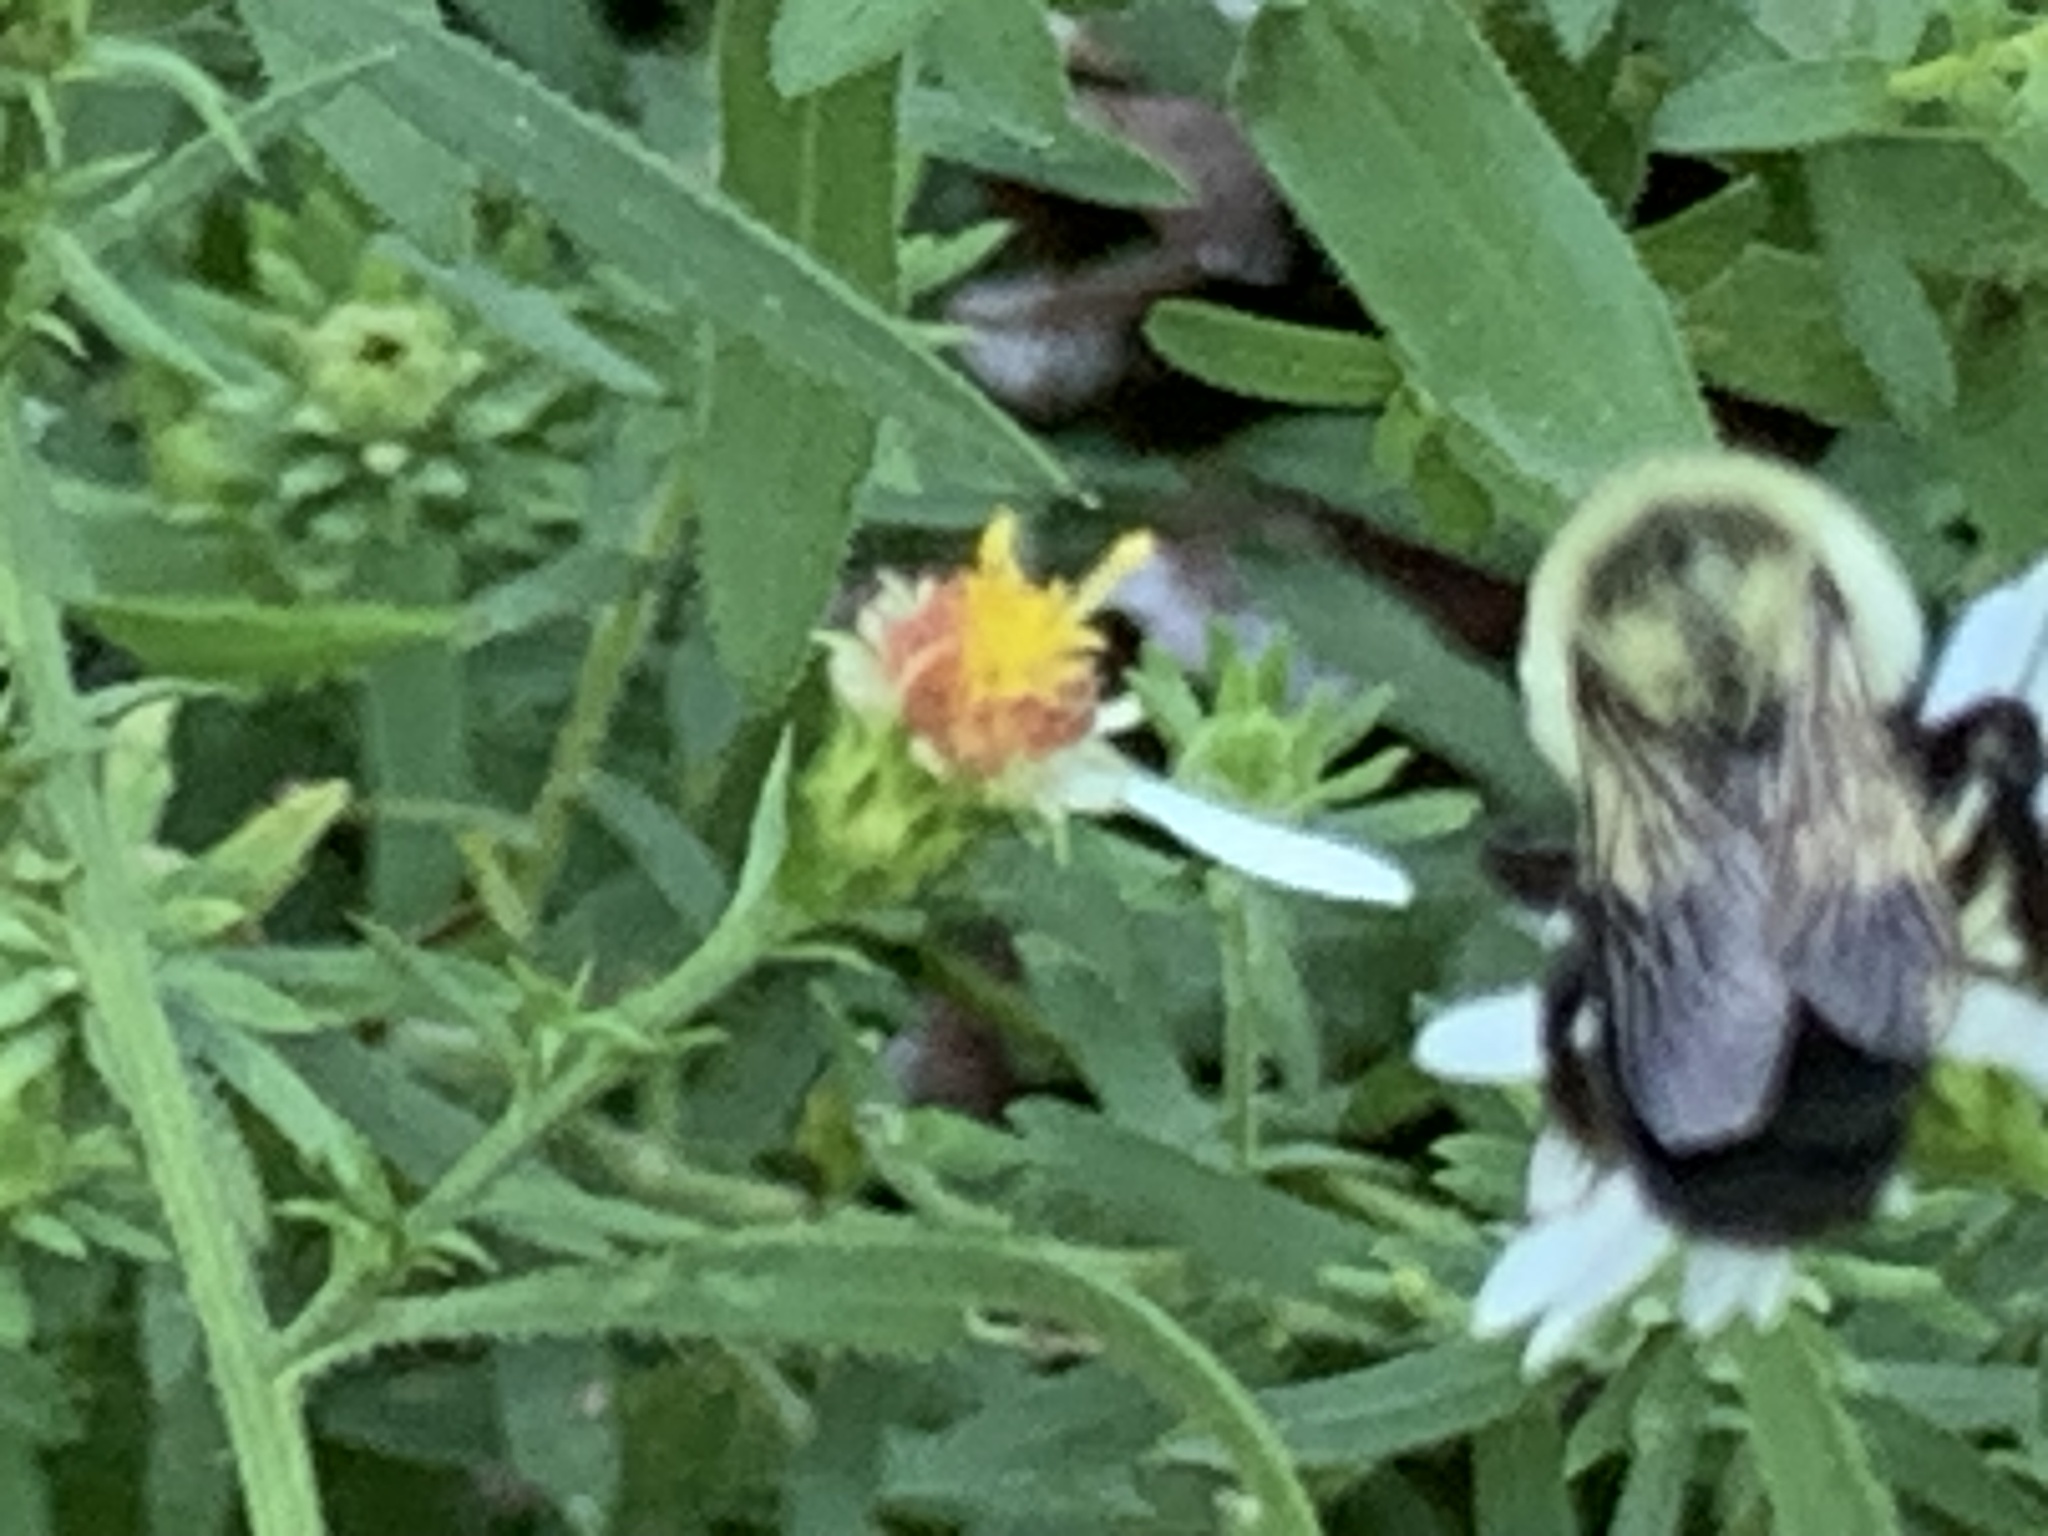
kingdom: Animalia
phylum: Arthropoda
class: Insecta
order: Hymenoptera
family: Apidae
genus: Bombus
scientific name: Bombus impatiens
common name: Common eastern bumble bee
